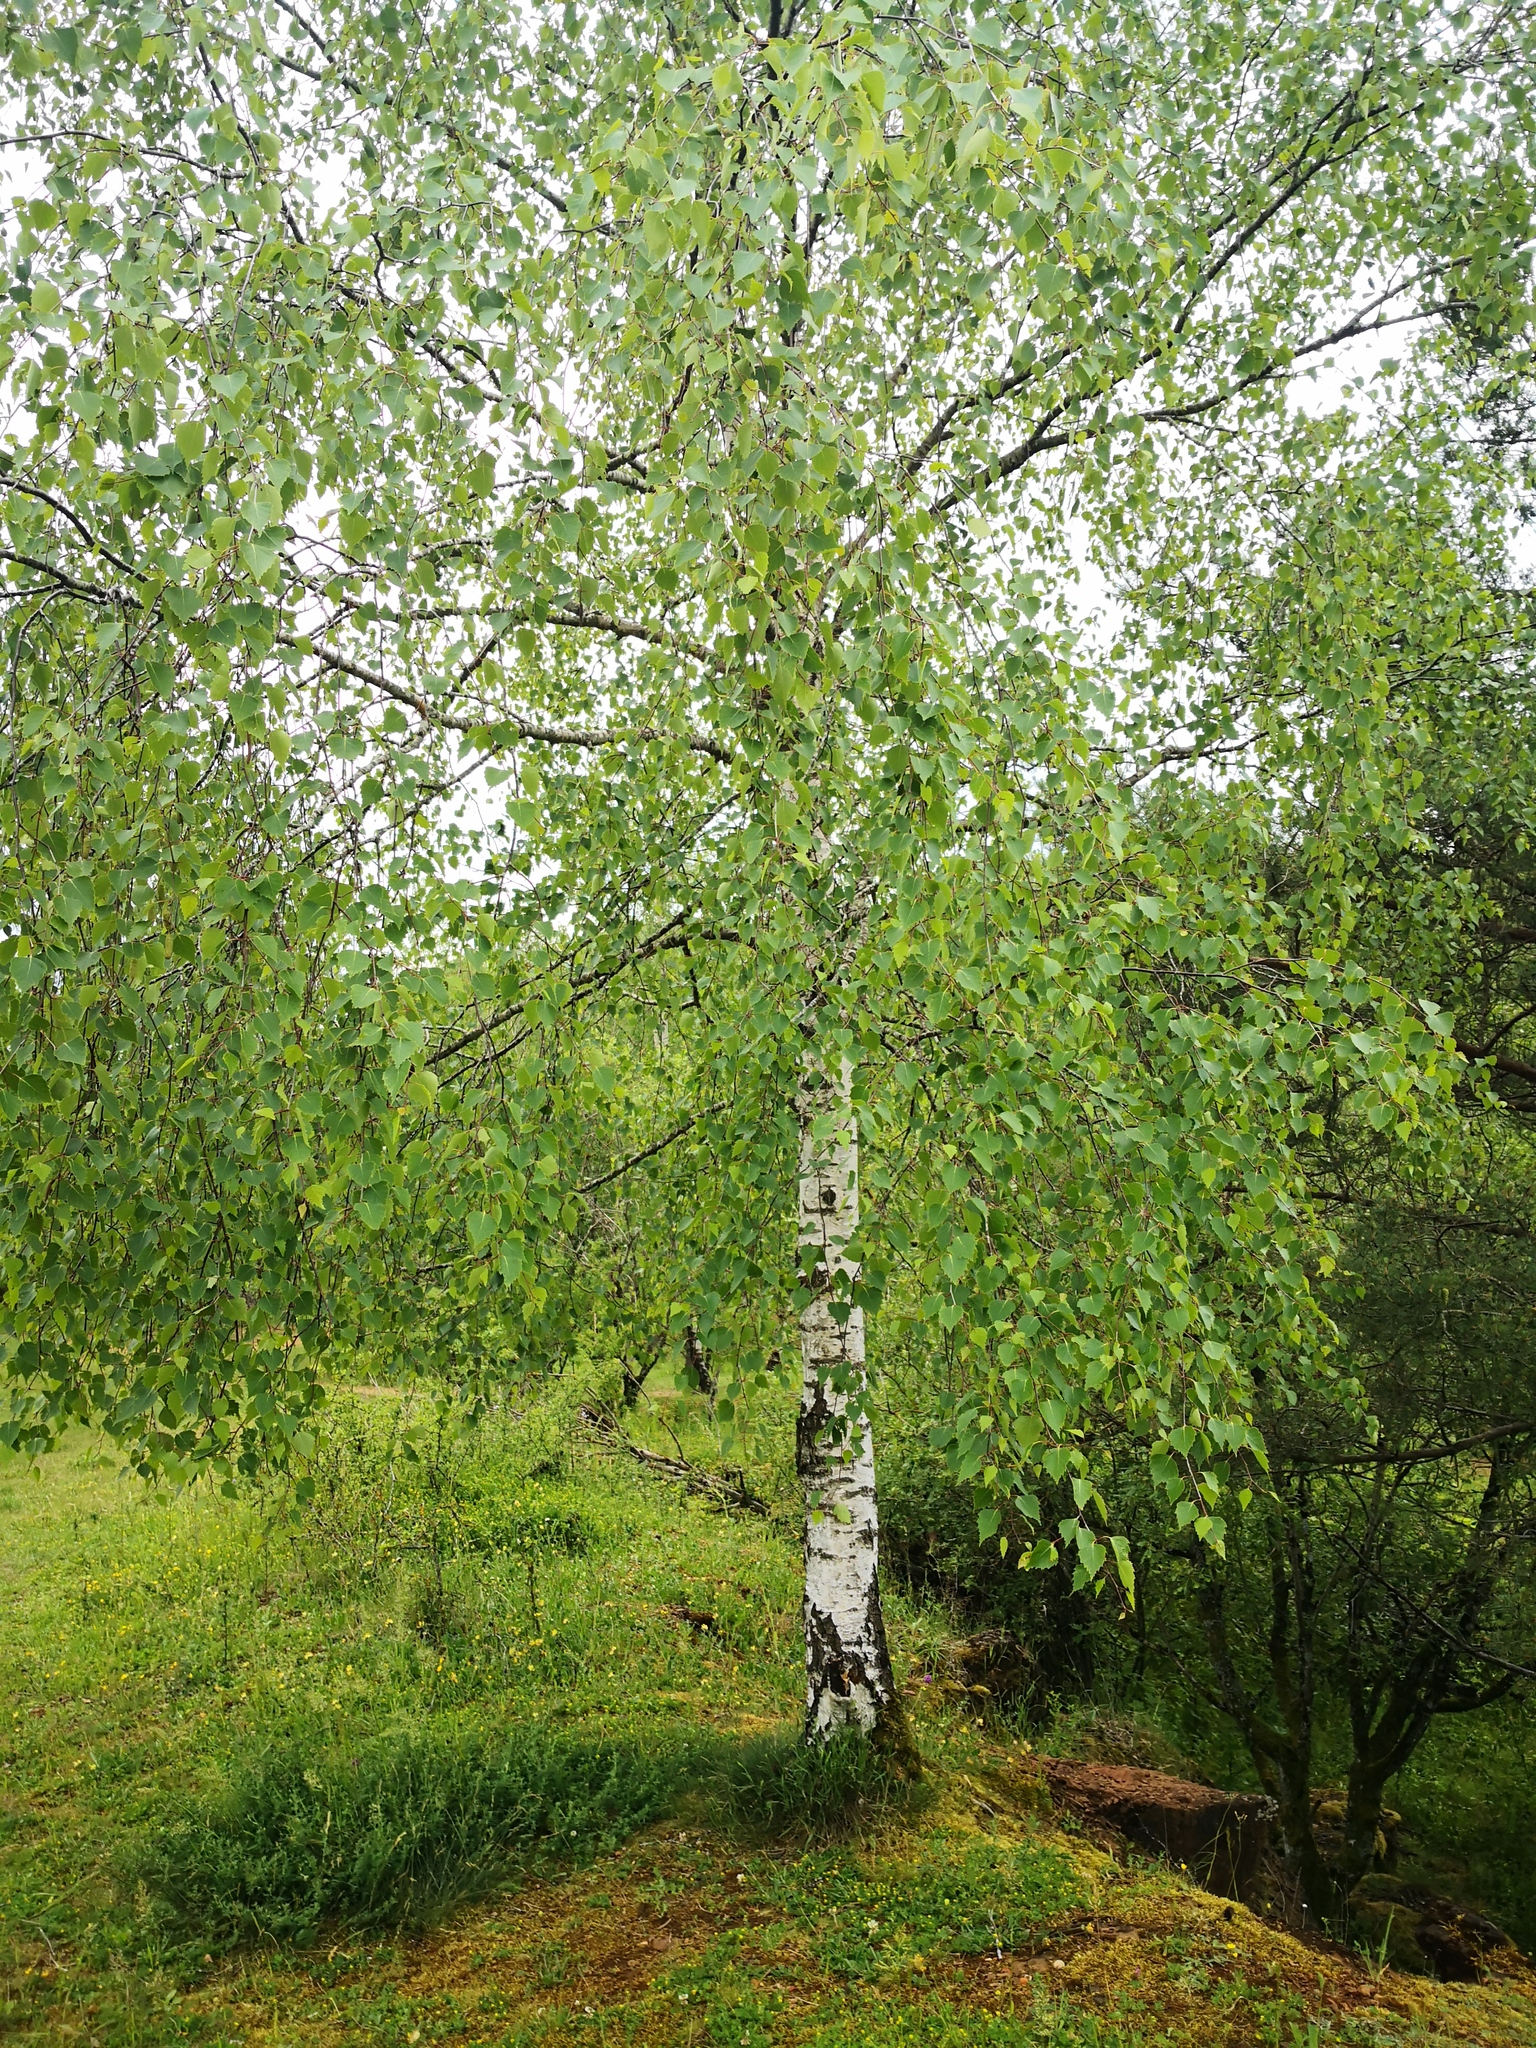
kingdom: Plantae
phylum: Tracheophyta
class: Magnoliopsida
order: Fagales
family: Betulaceae
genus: Betula
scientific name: Betula pendula
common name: Silver birch
